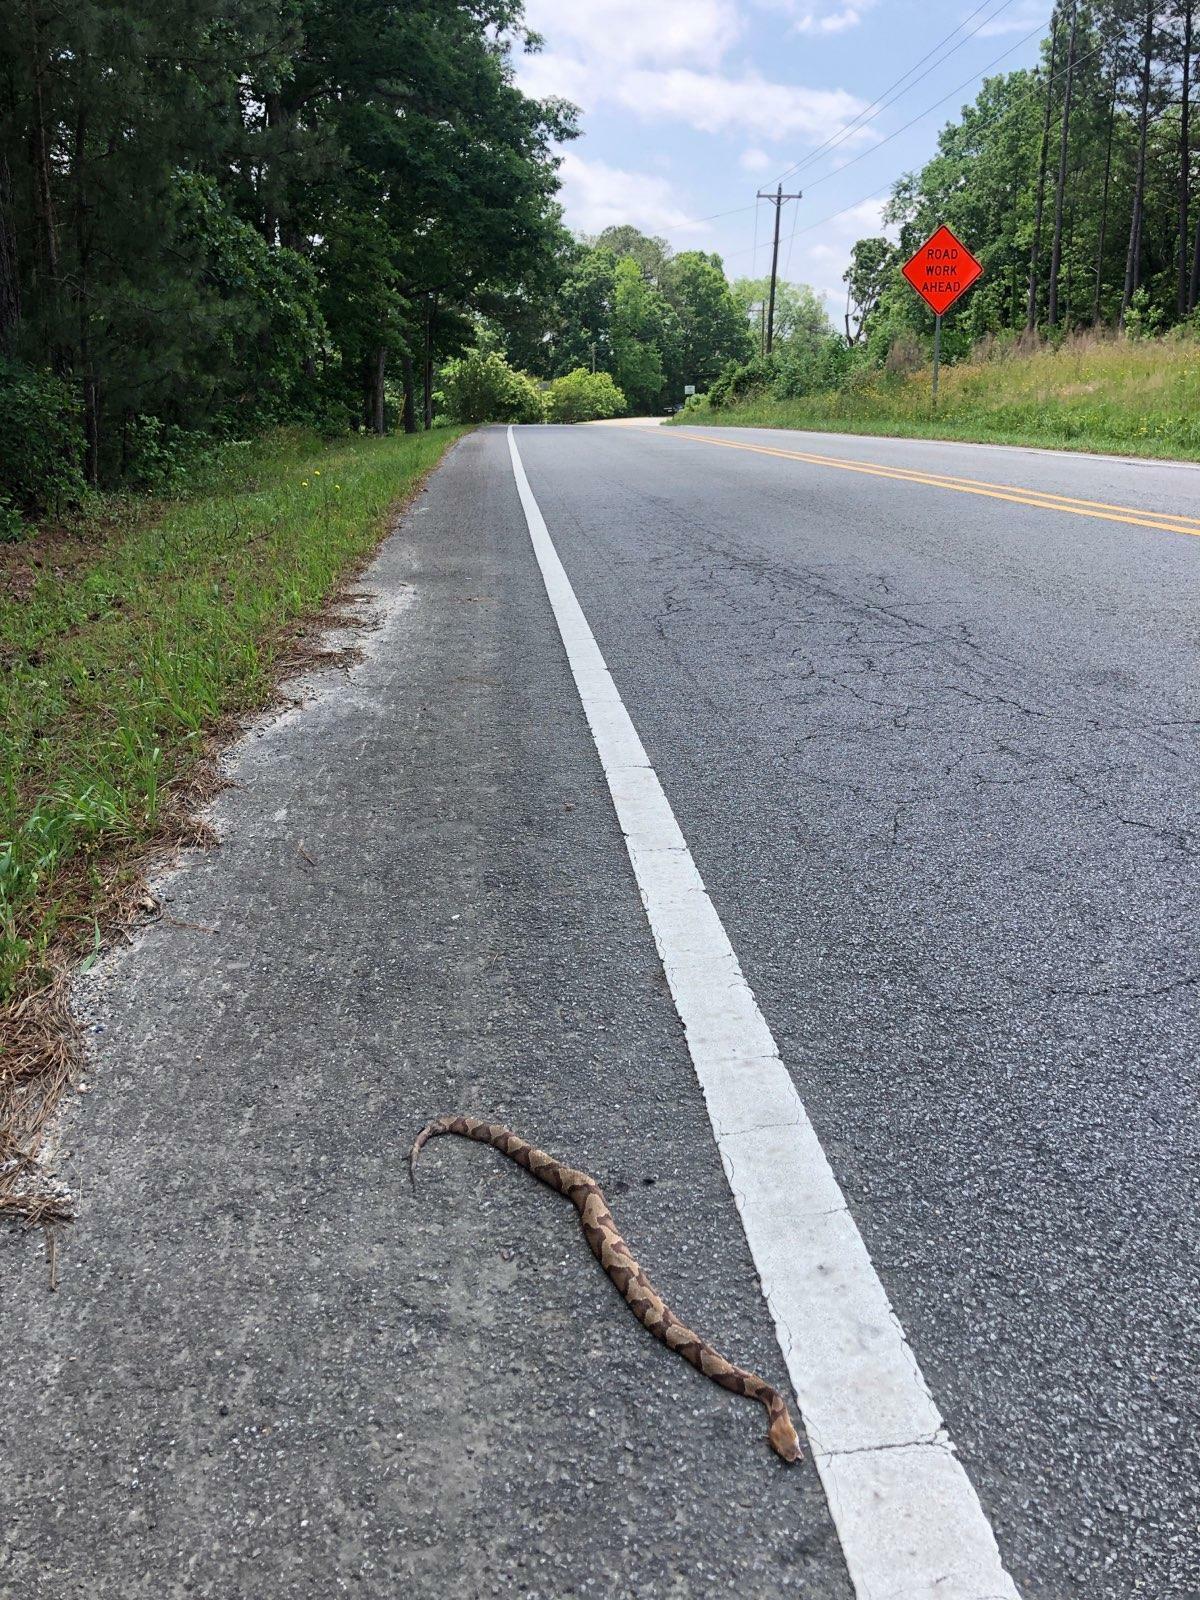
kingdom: Animalia
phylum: Chordata
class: Squamata
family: Viperidae
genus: Agkistrodon
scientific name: Agkistrodon contortrix
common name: Northern copperhead
